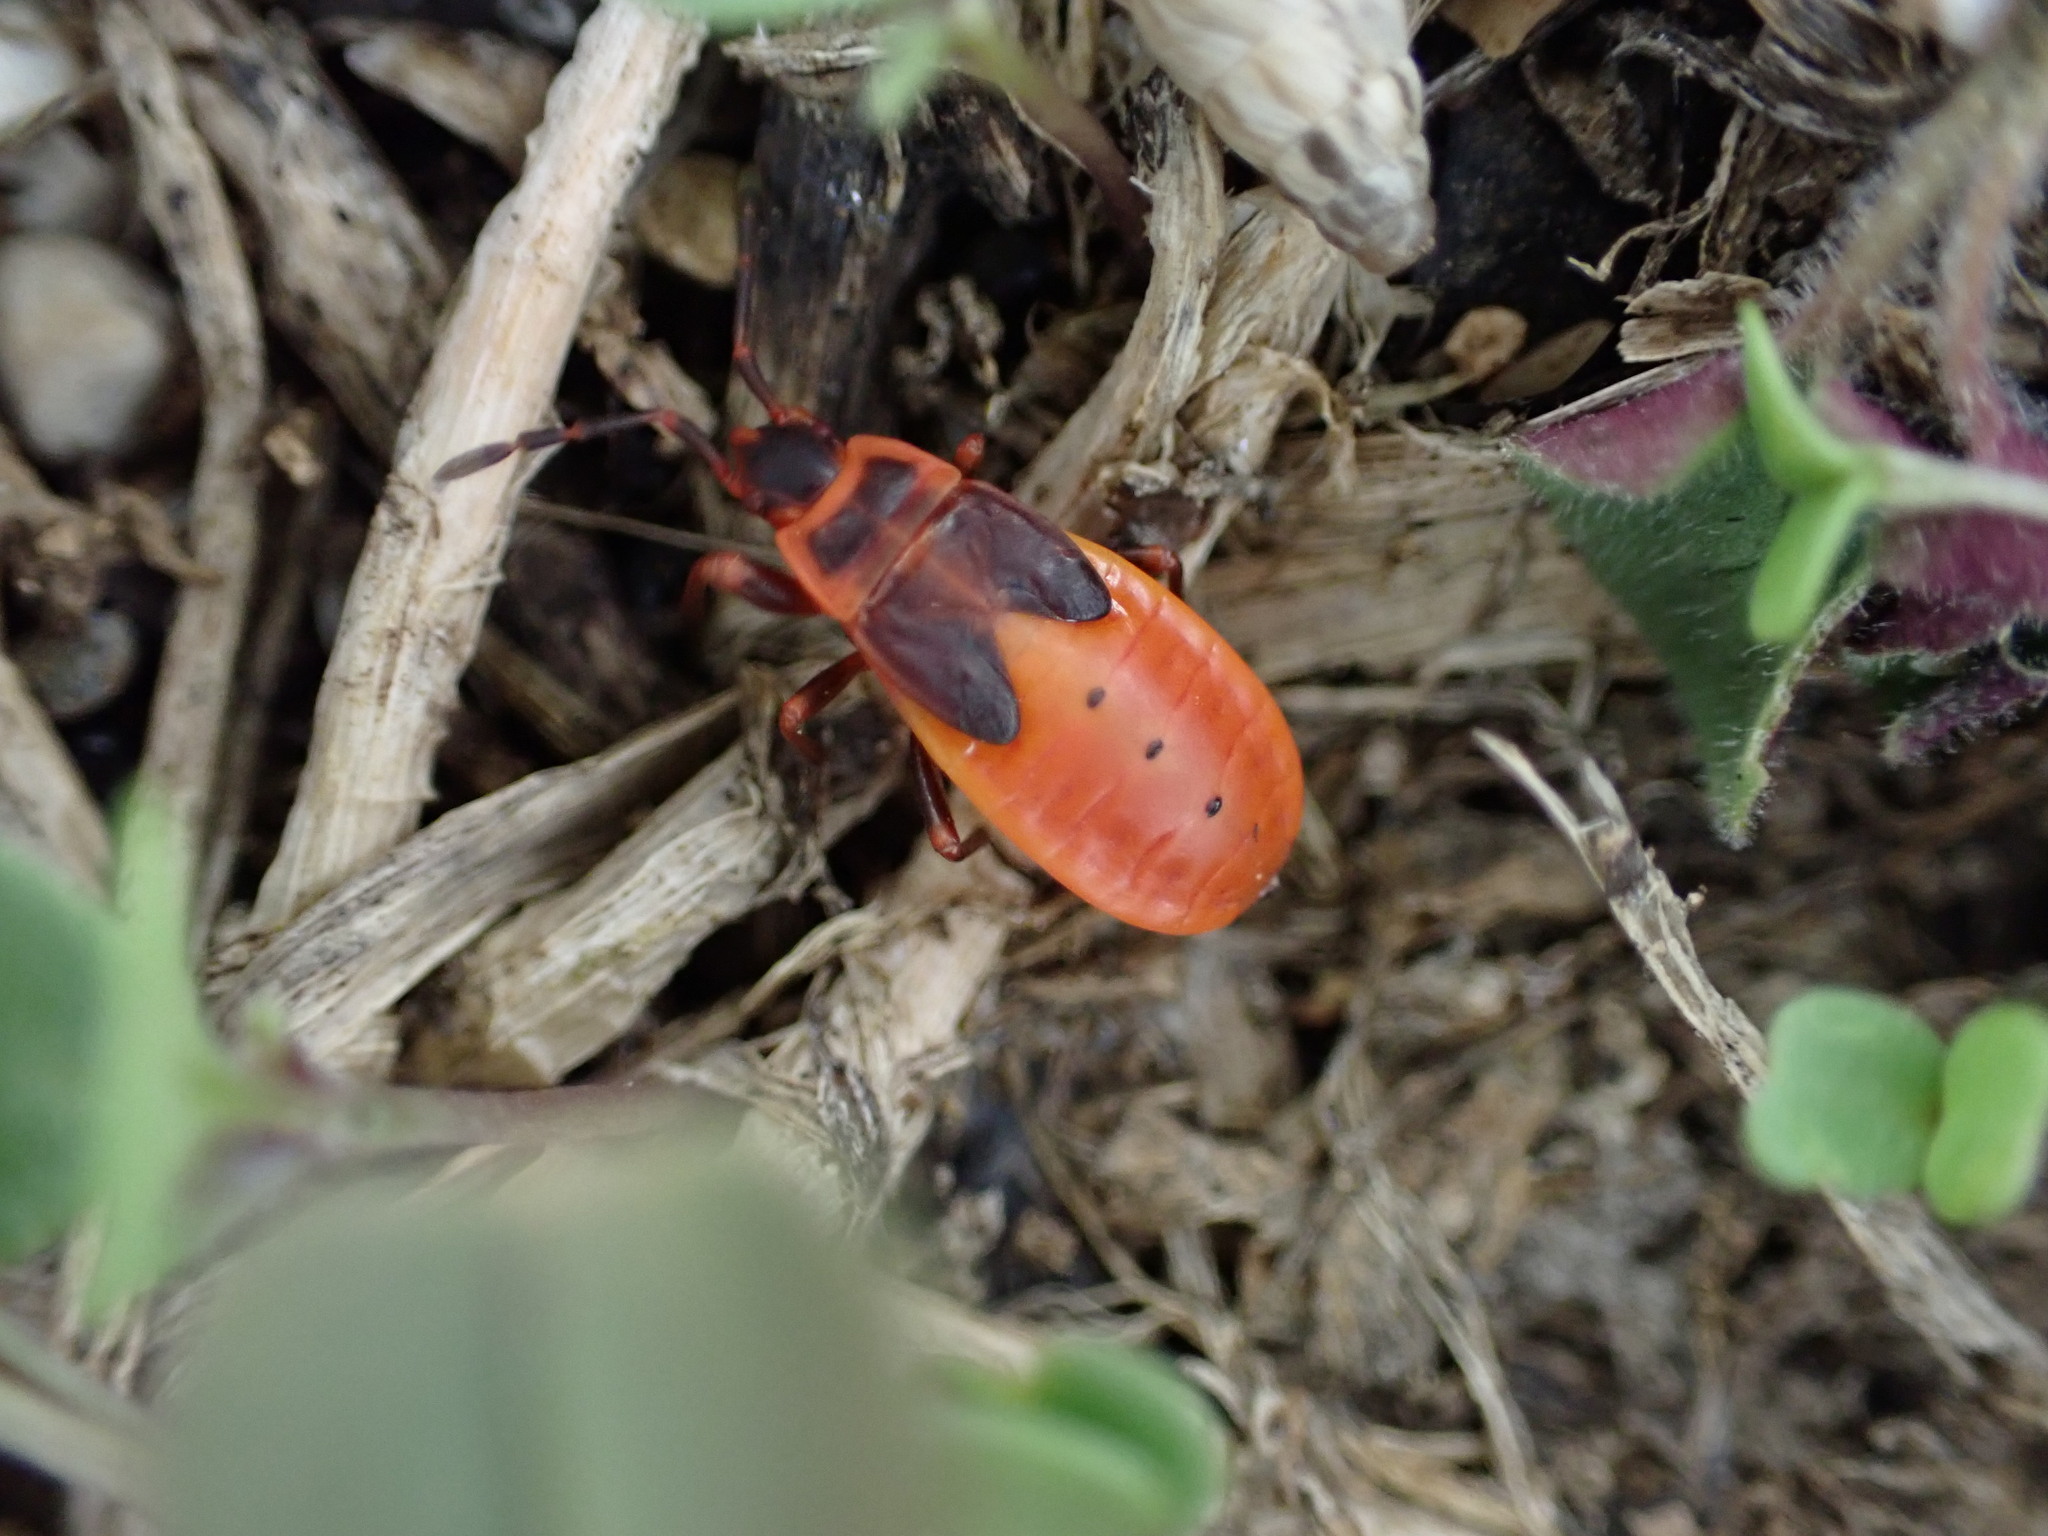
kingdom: Animalia
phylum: Arthropoda
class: Insecta
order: Hemiptera
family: Pyrrhocoridae
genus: Pyrrhocoris
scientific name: Pyrrhocoris apterus
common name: Firebug
